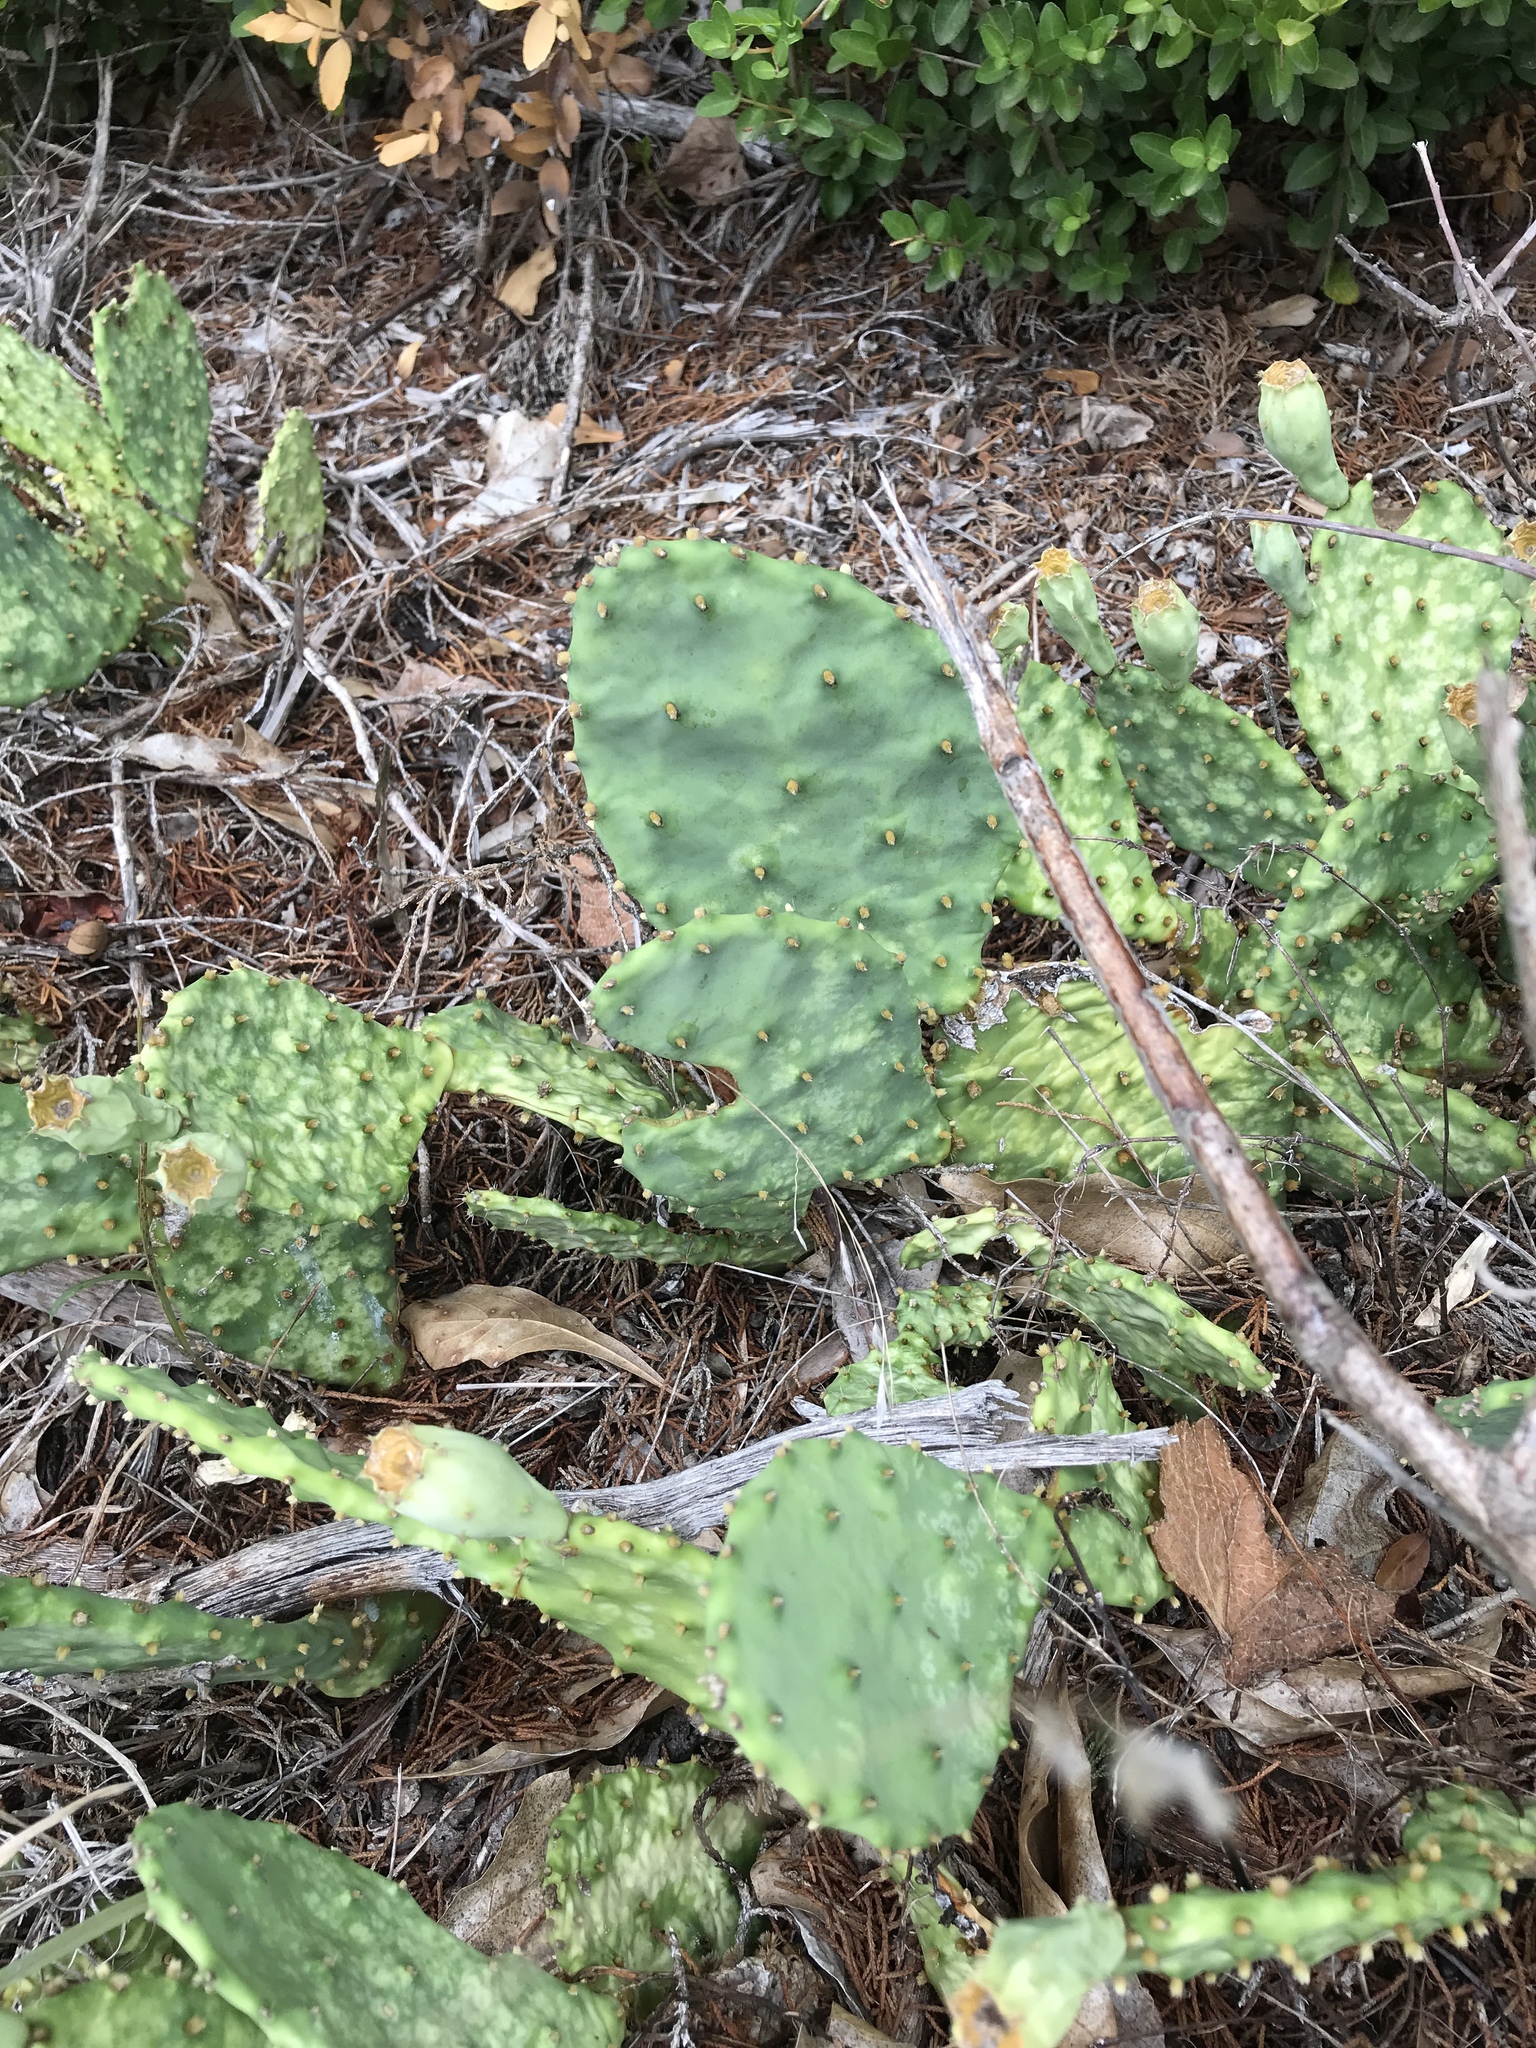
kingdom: Plantae
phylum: Tracheophyta
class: Magnoliopsida
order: Caryophyllales
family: Cactaceae
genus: Opuntia
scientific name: Opuntia macrorhiza
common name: Grassland pricklypear
